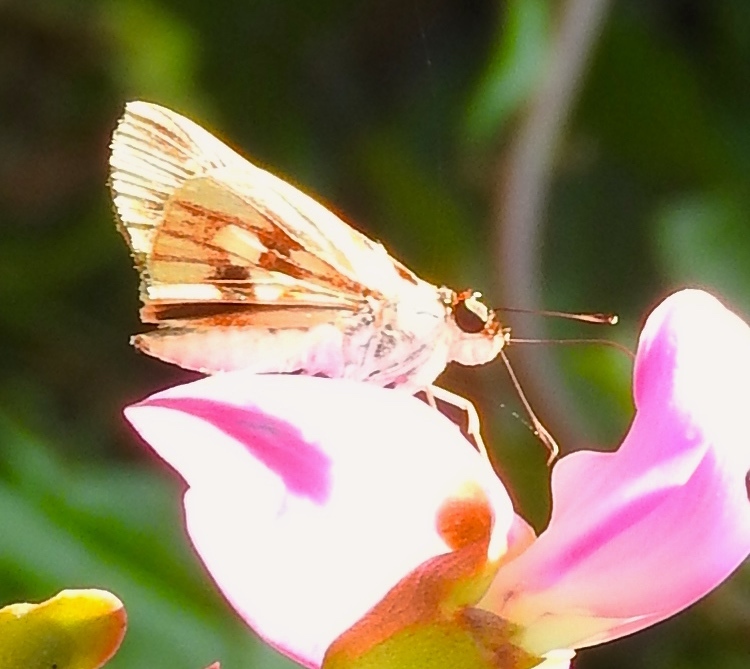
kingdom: Animalia
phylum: Arthropoda
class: Insecta
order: Lepidoptera
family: Hesperiidae
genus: Troyus
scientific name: Troyus fantasos
